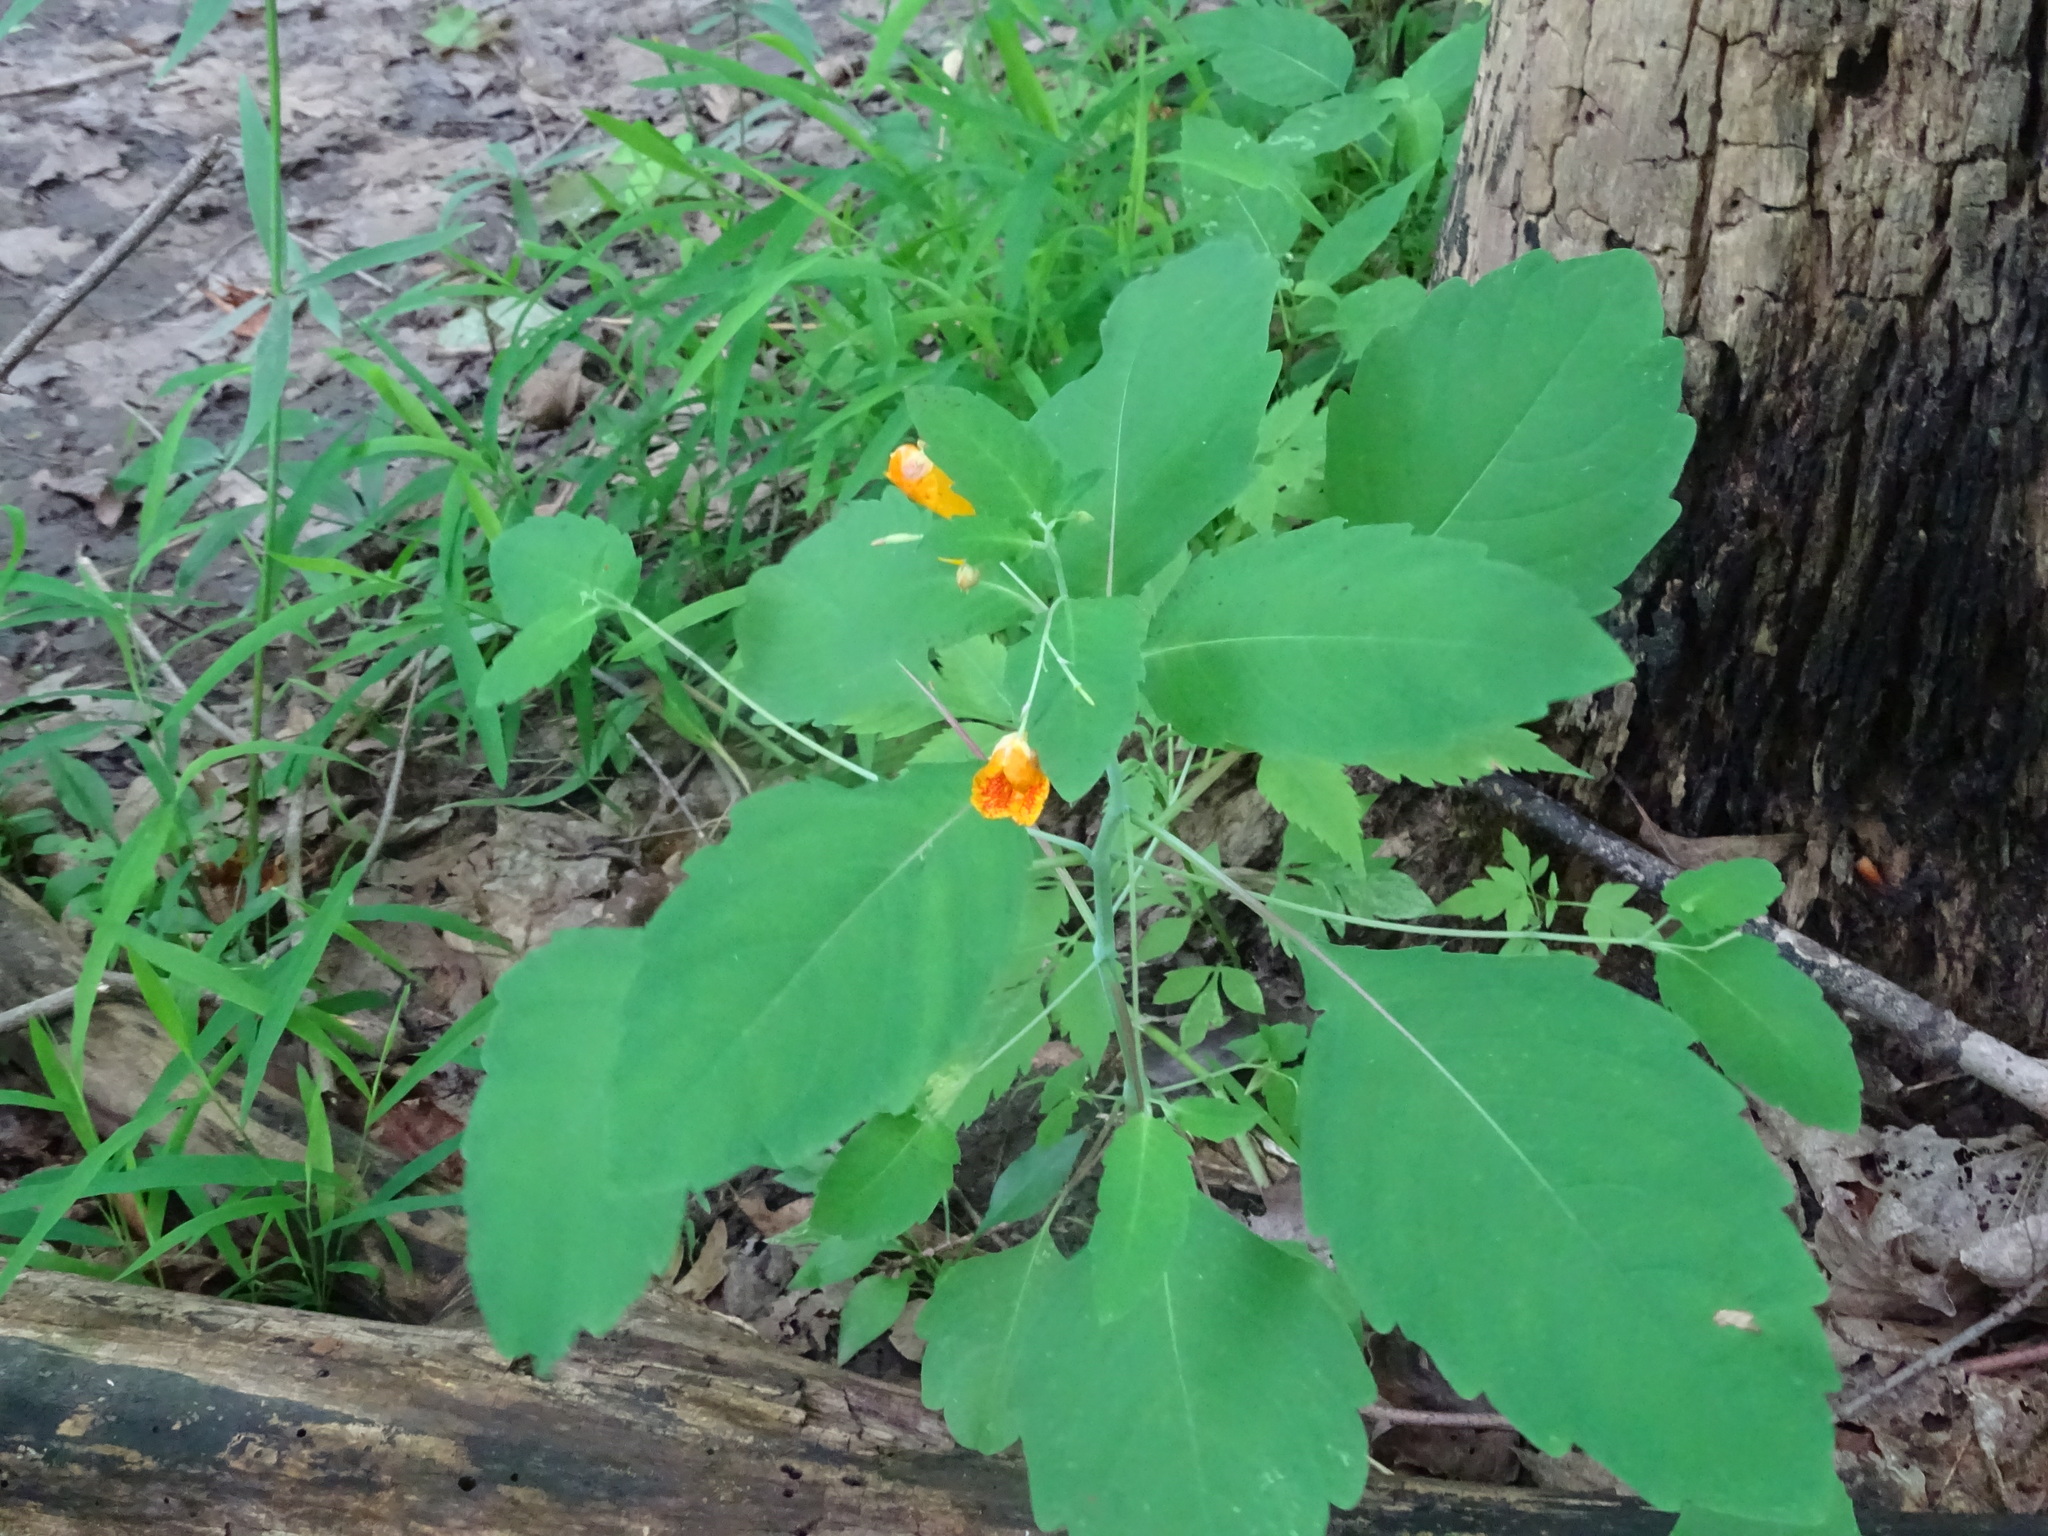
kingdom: Plantae
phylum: Tracheophyta
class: Magnoliopsida
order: Ericales
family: Balsaminaceae
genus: Impatiens
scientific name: Impatiens capensis
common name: Orange balsam
